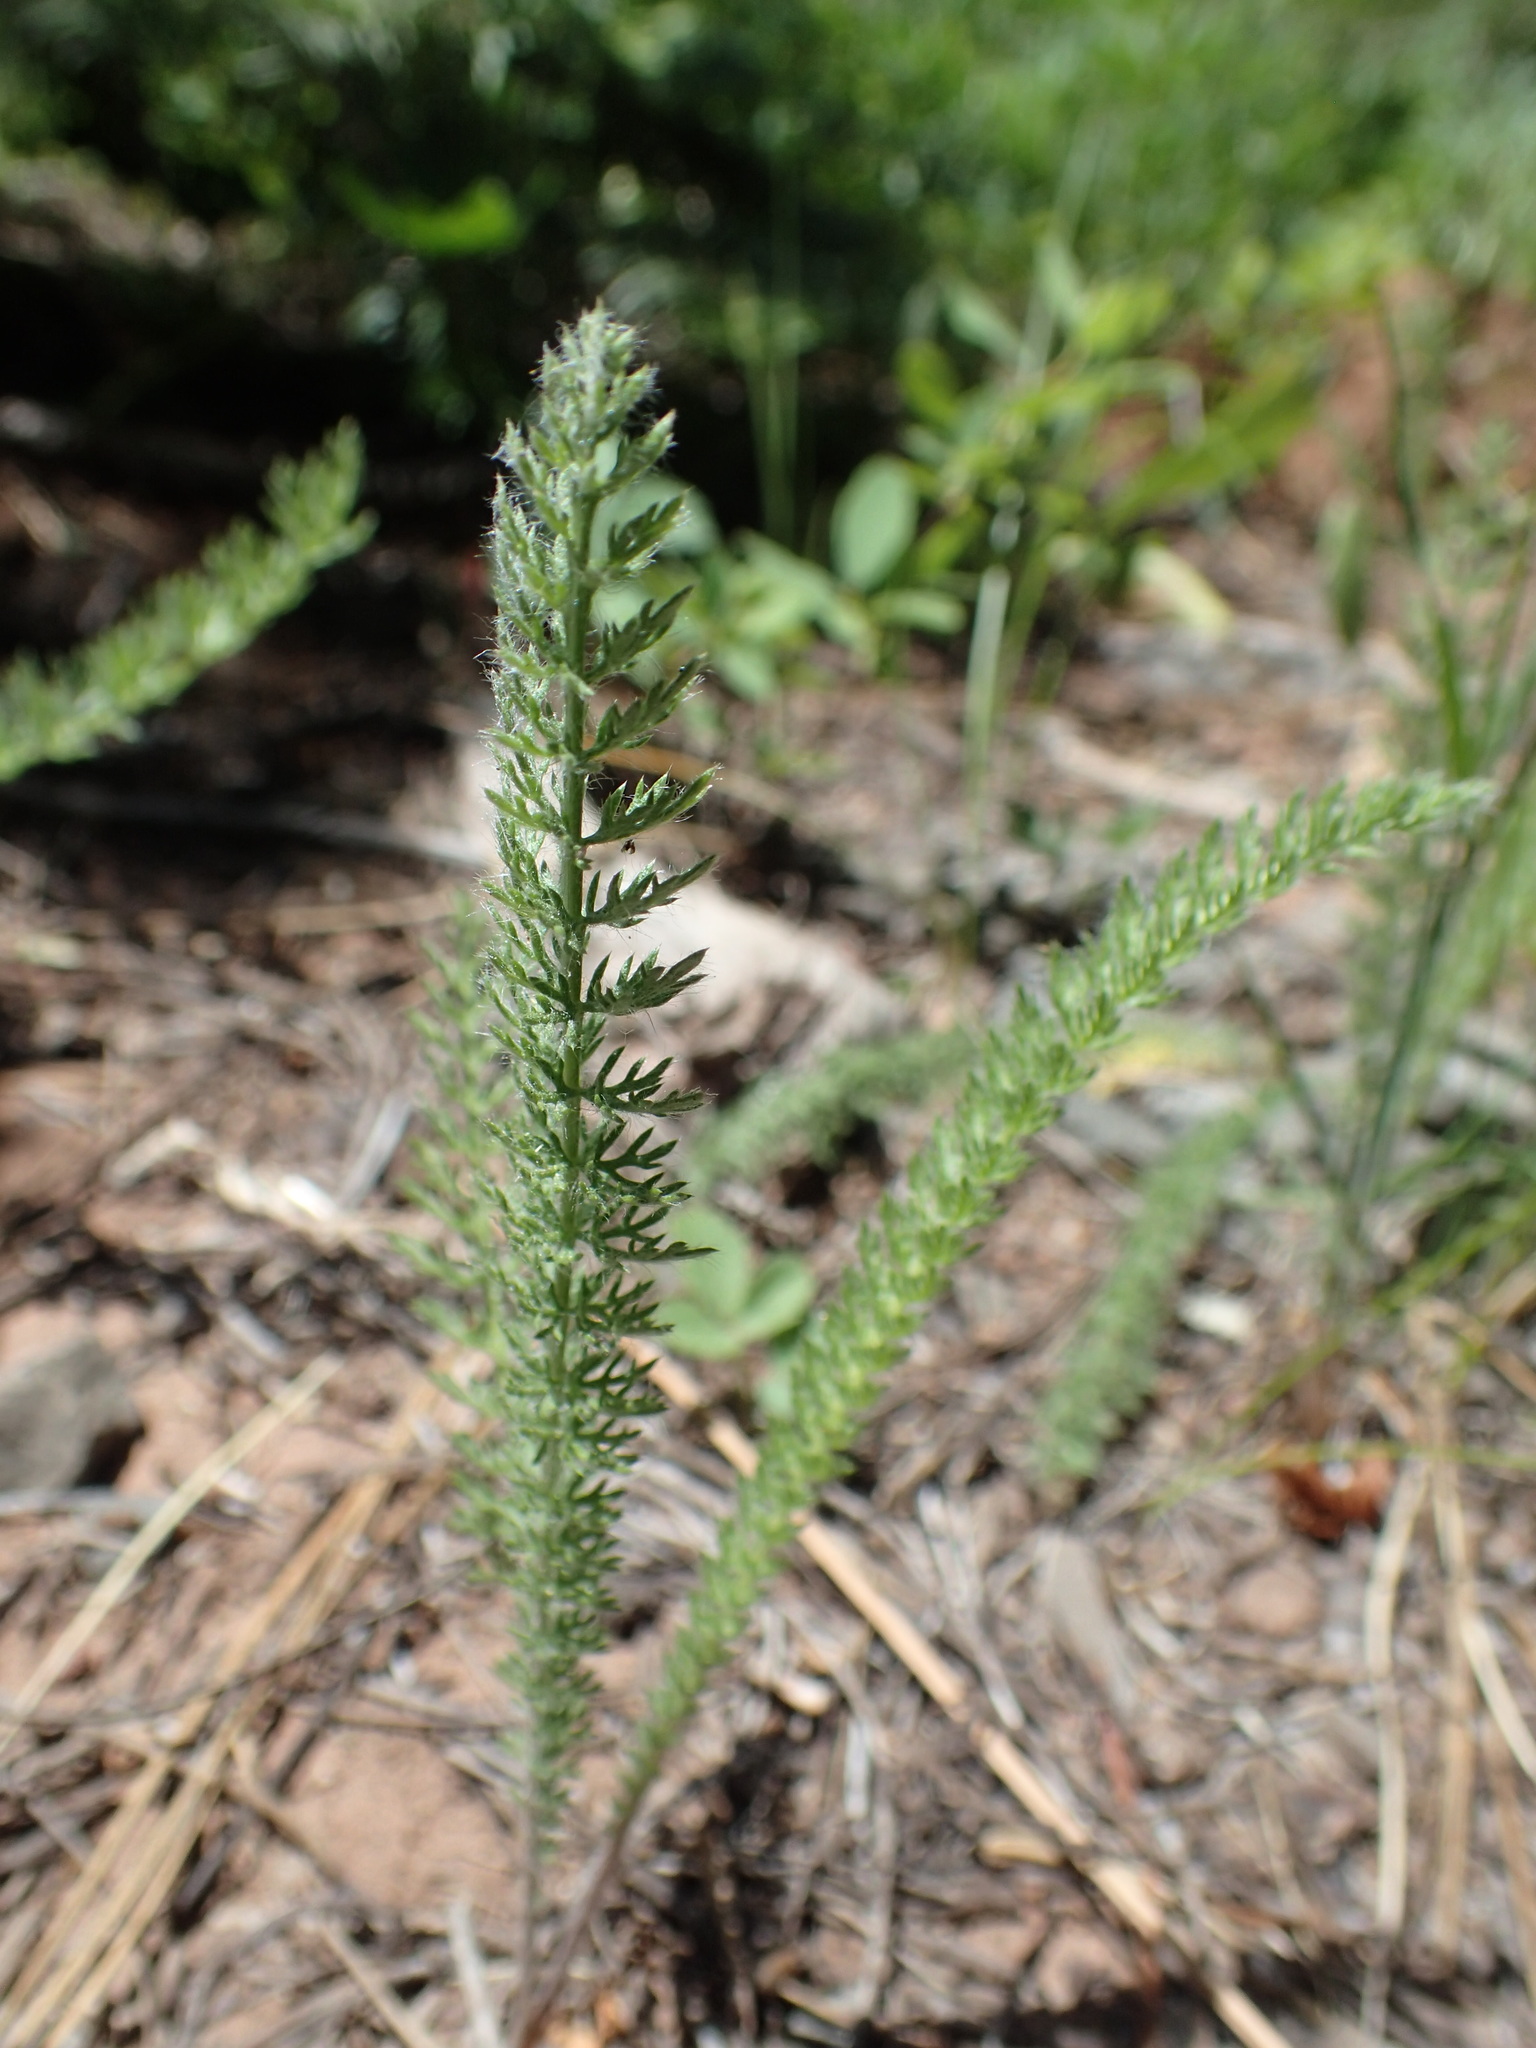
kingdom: Plantae
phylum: Tracheophyta
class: Magnoliopsida
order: Asterales
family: Asteraceae
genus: Achillea
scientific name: Achillea millefolium
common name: Yarrow
